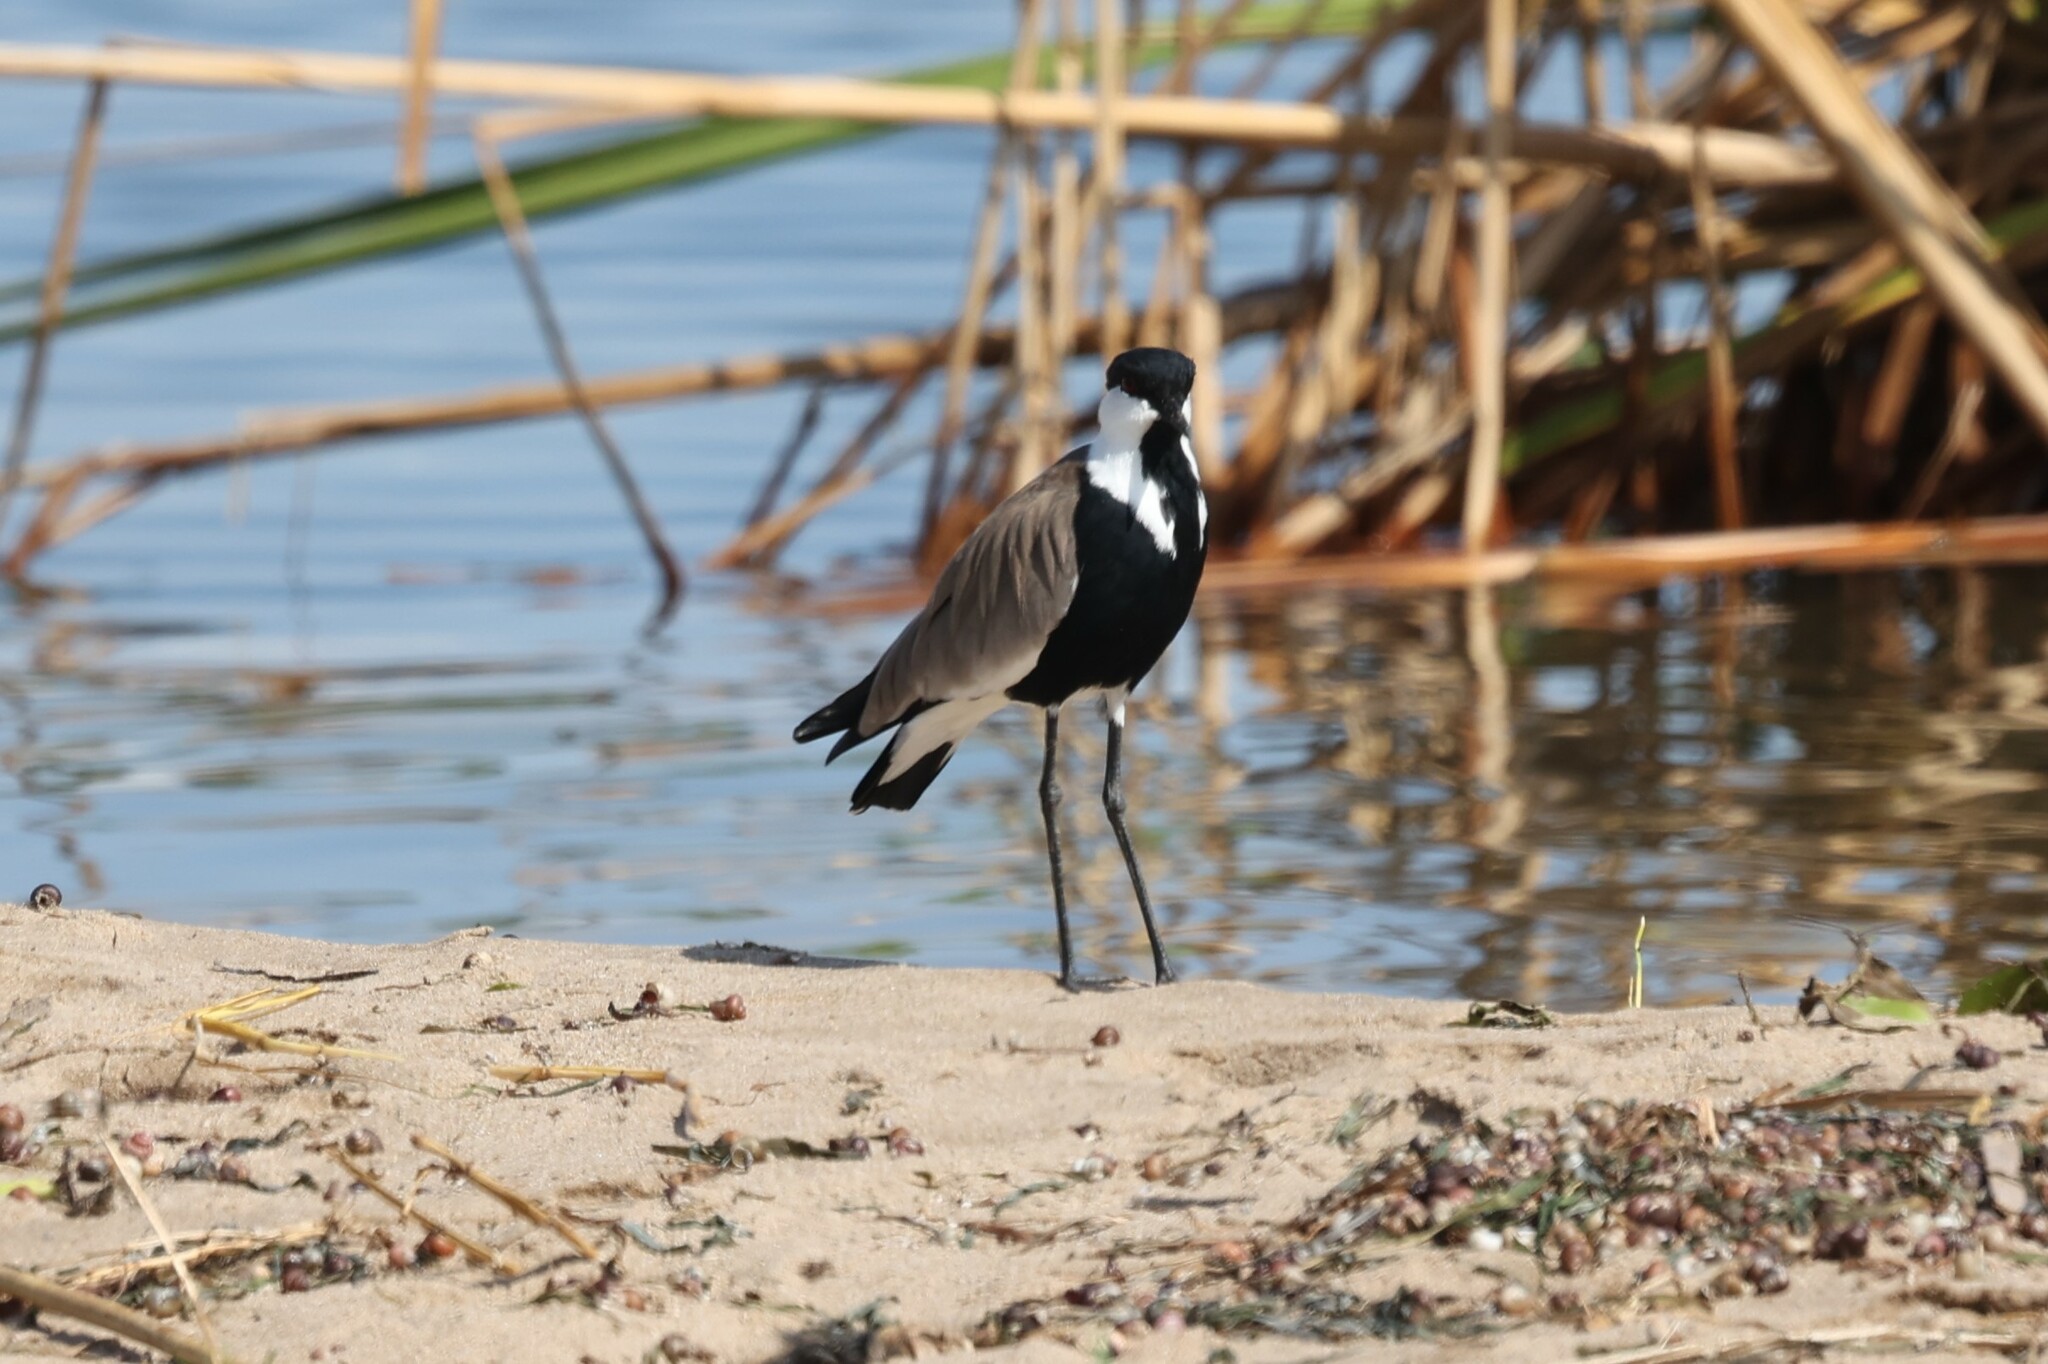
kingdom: Animalia
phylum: Chordata
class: Aves
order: Charadriiformes
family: Charadriidae
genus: Vanellus
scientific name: Vanellus spinosus
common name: Spur-winged lapwing
